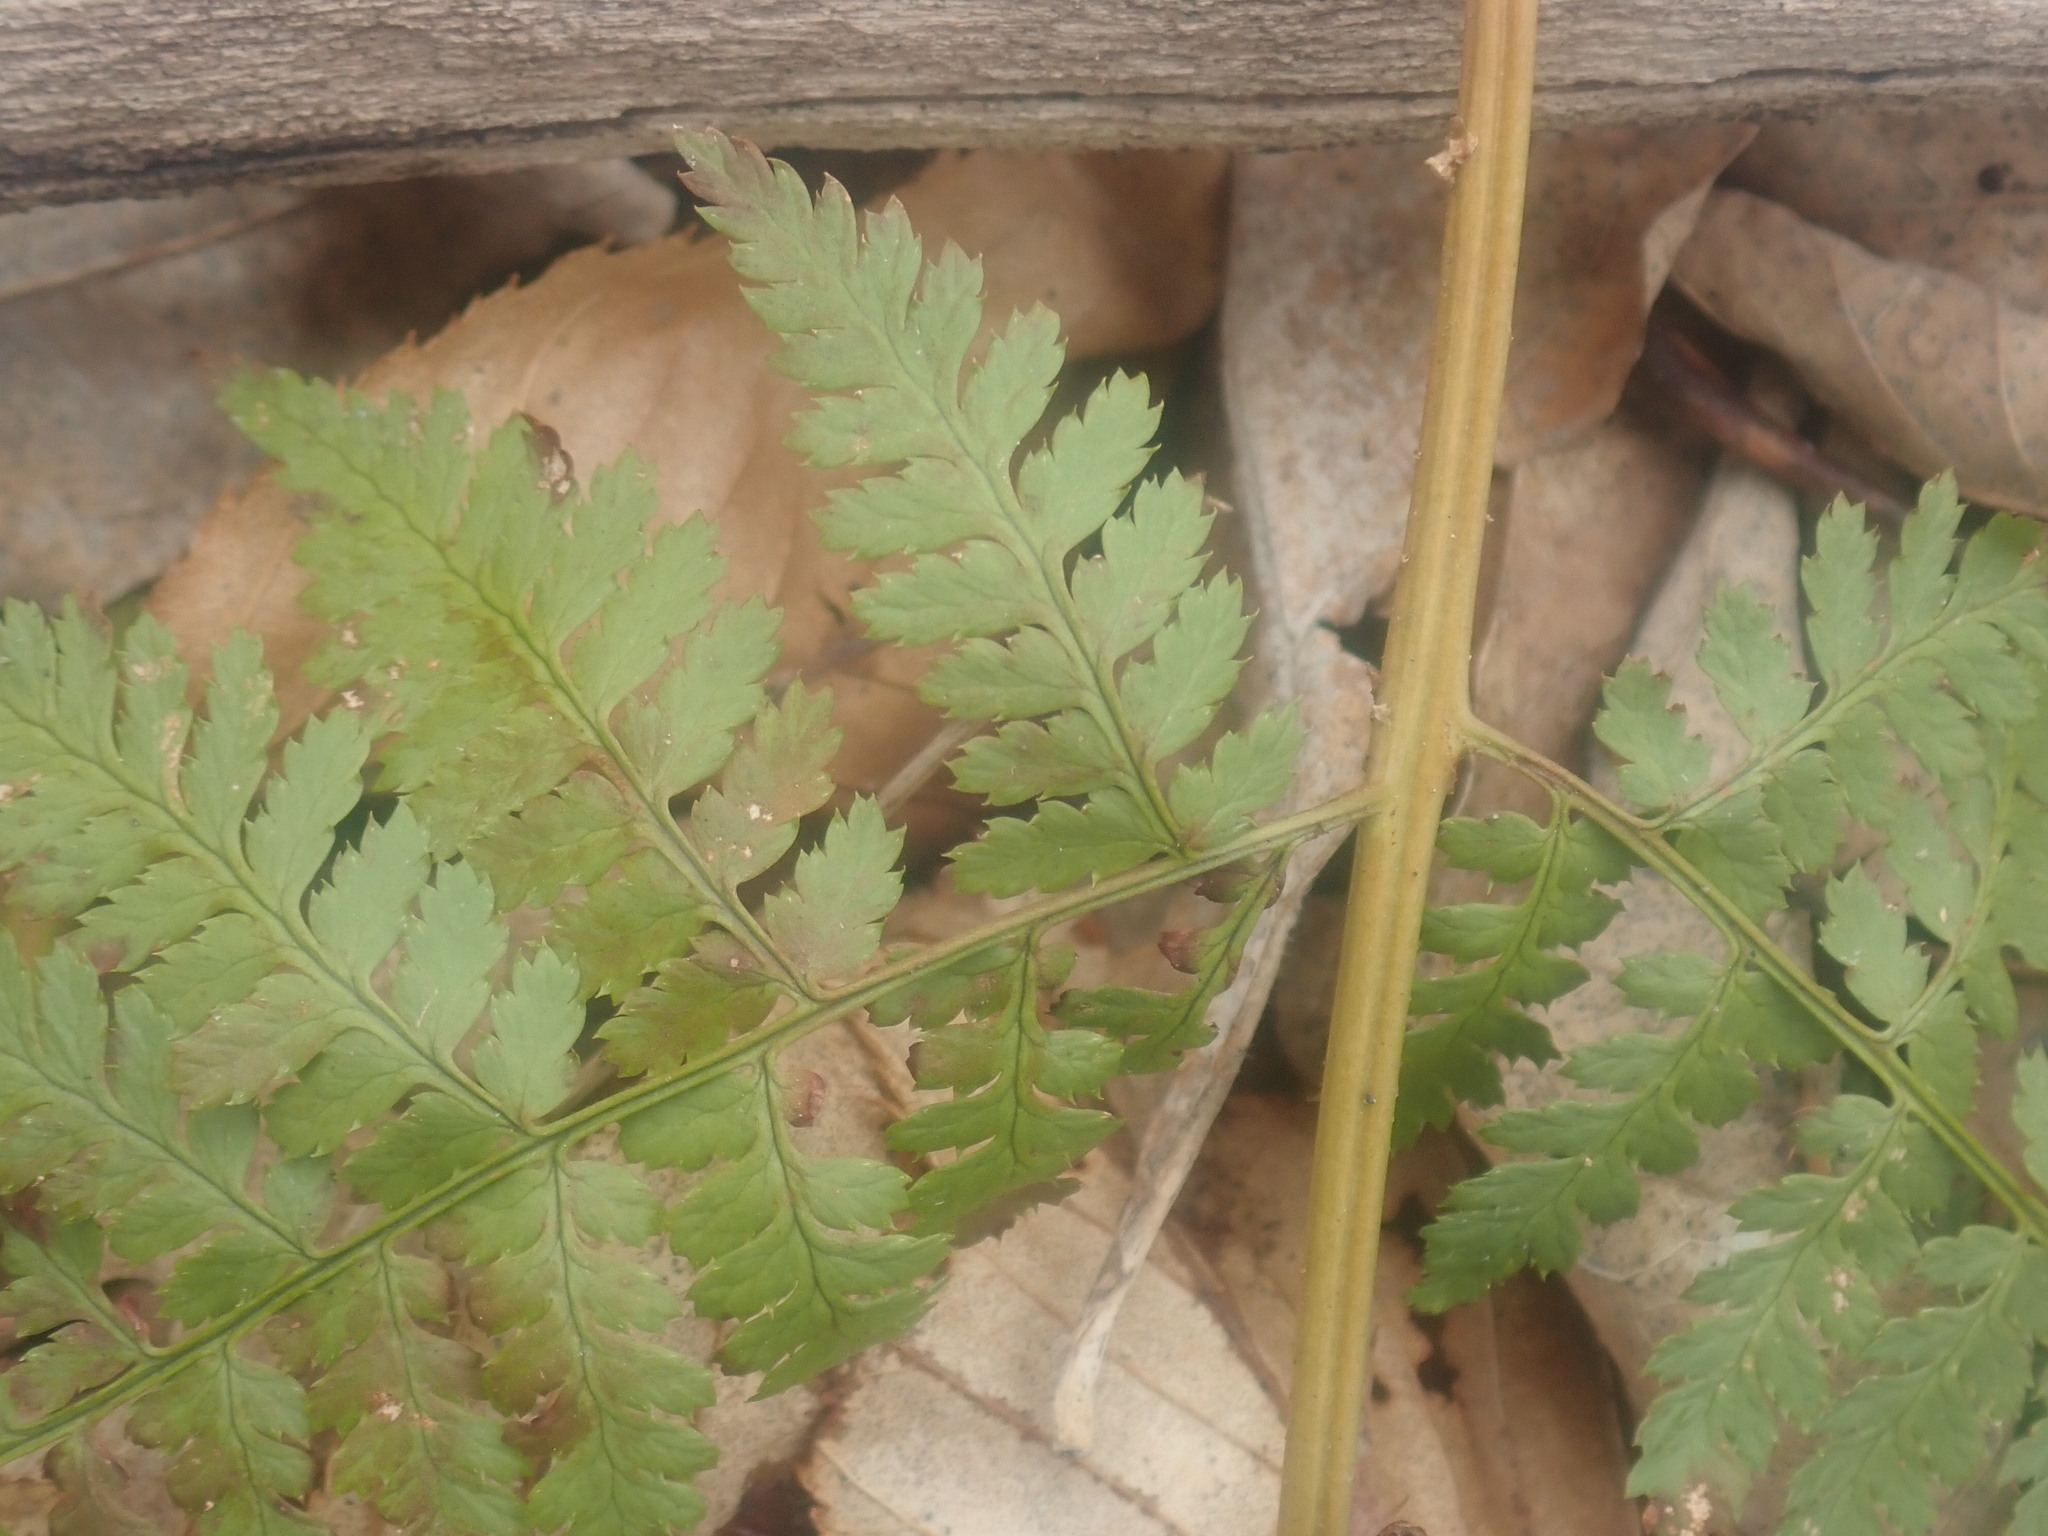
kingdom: Plantae
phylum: Tracheophyta
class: Polypodiopsida
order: Polypodiales
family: Dryopteridaceae
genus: Dryopteris
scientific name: Dryopteris intermedia
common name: Evergreen wood fern
